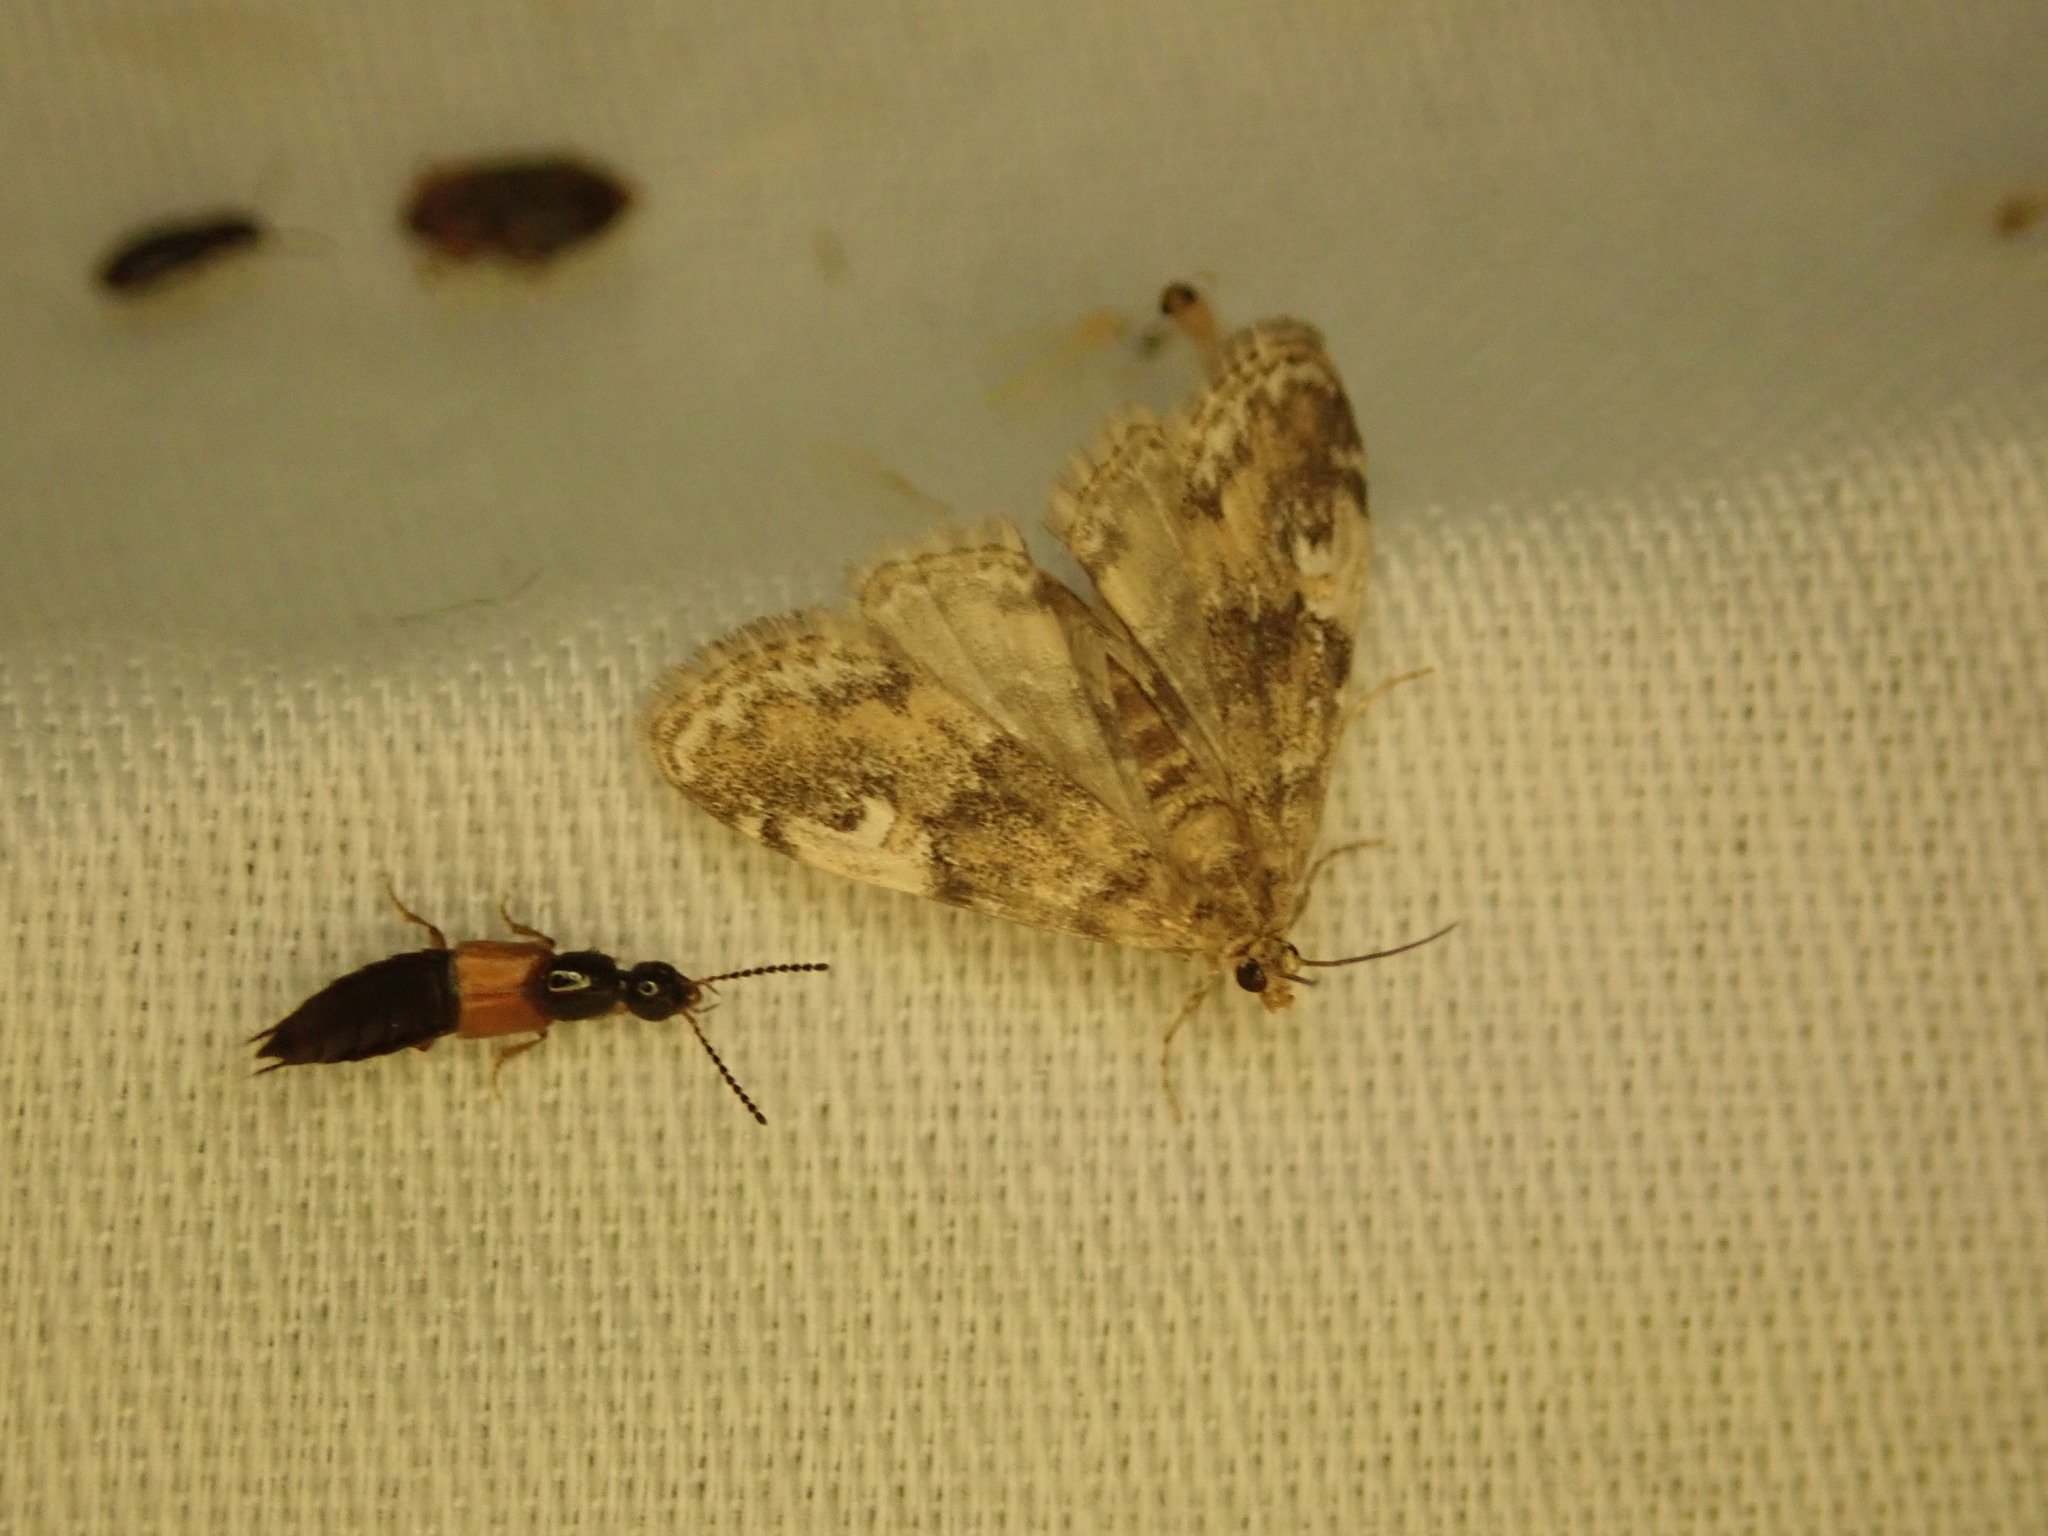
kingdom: Animalia
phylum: Arthropoda
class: Insecta
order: Lepidoptera
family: Crambidae
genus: Elophila
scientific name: Elophila obliteralis
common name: Waterlily leafcutter moth
